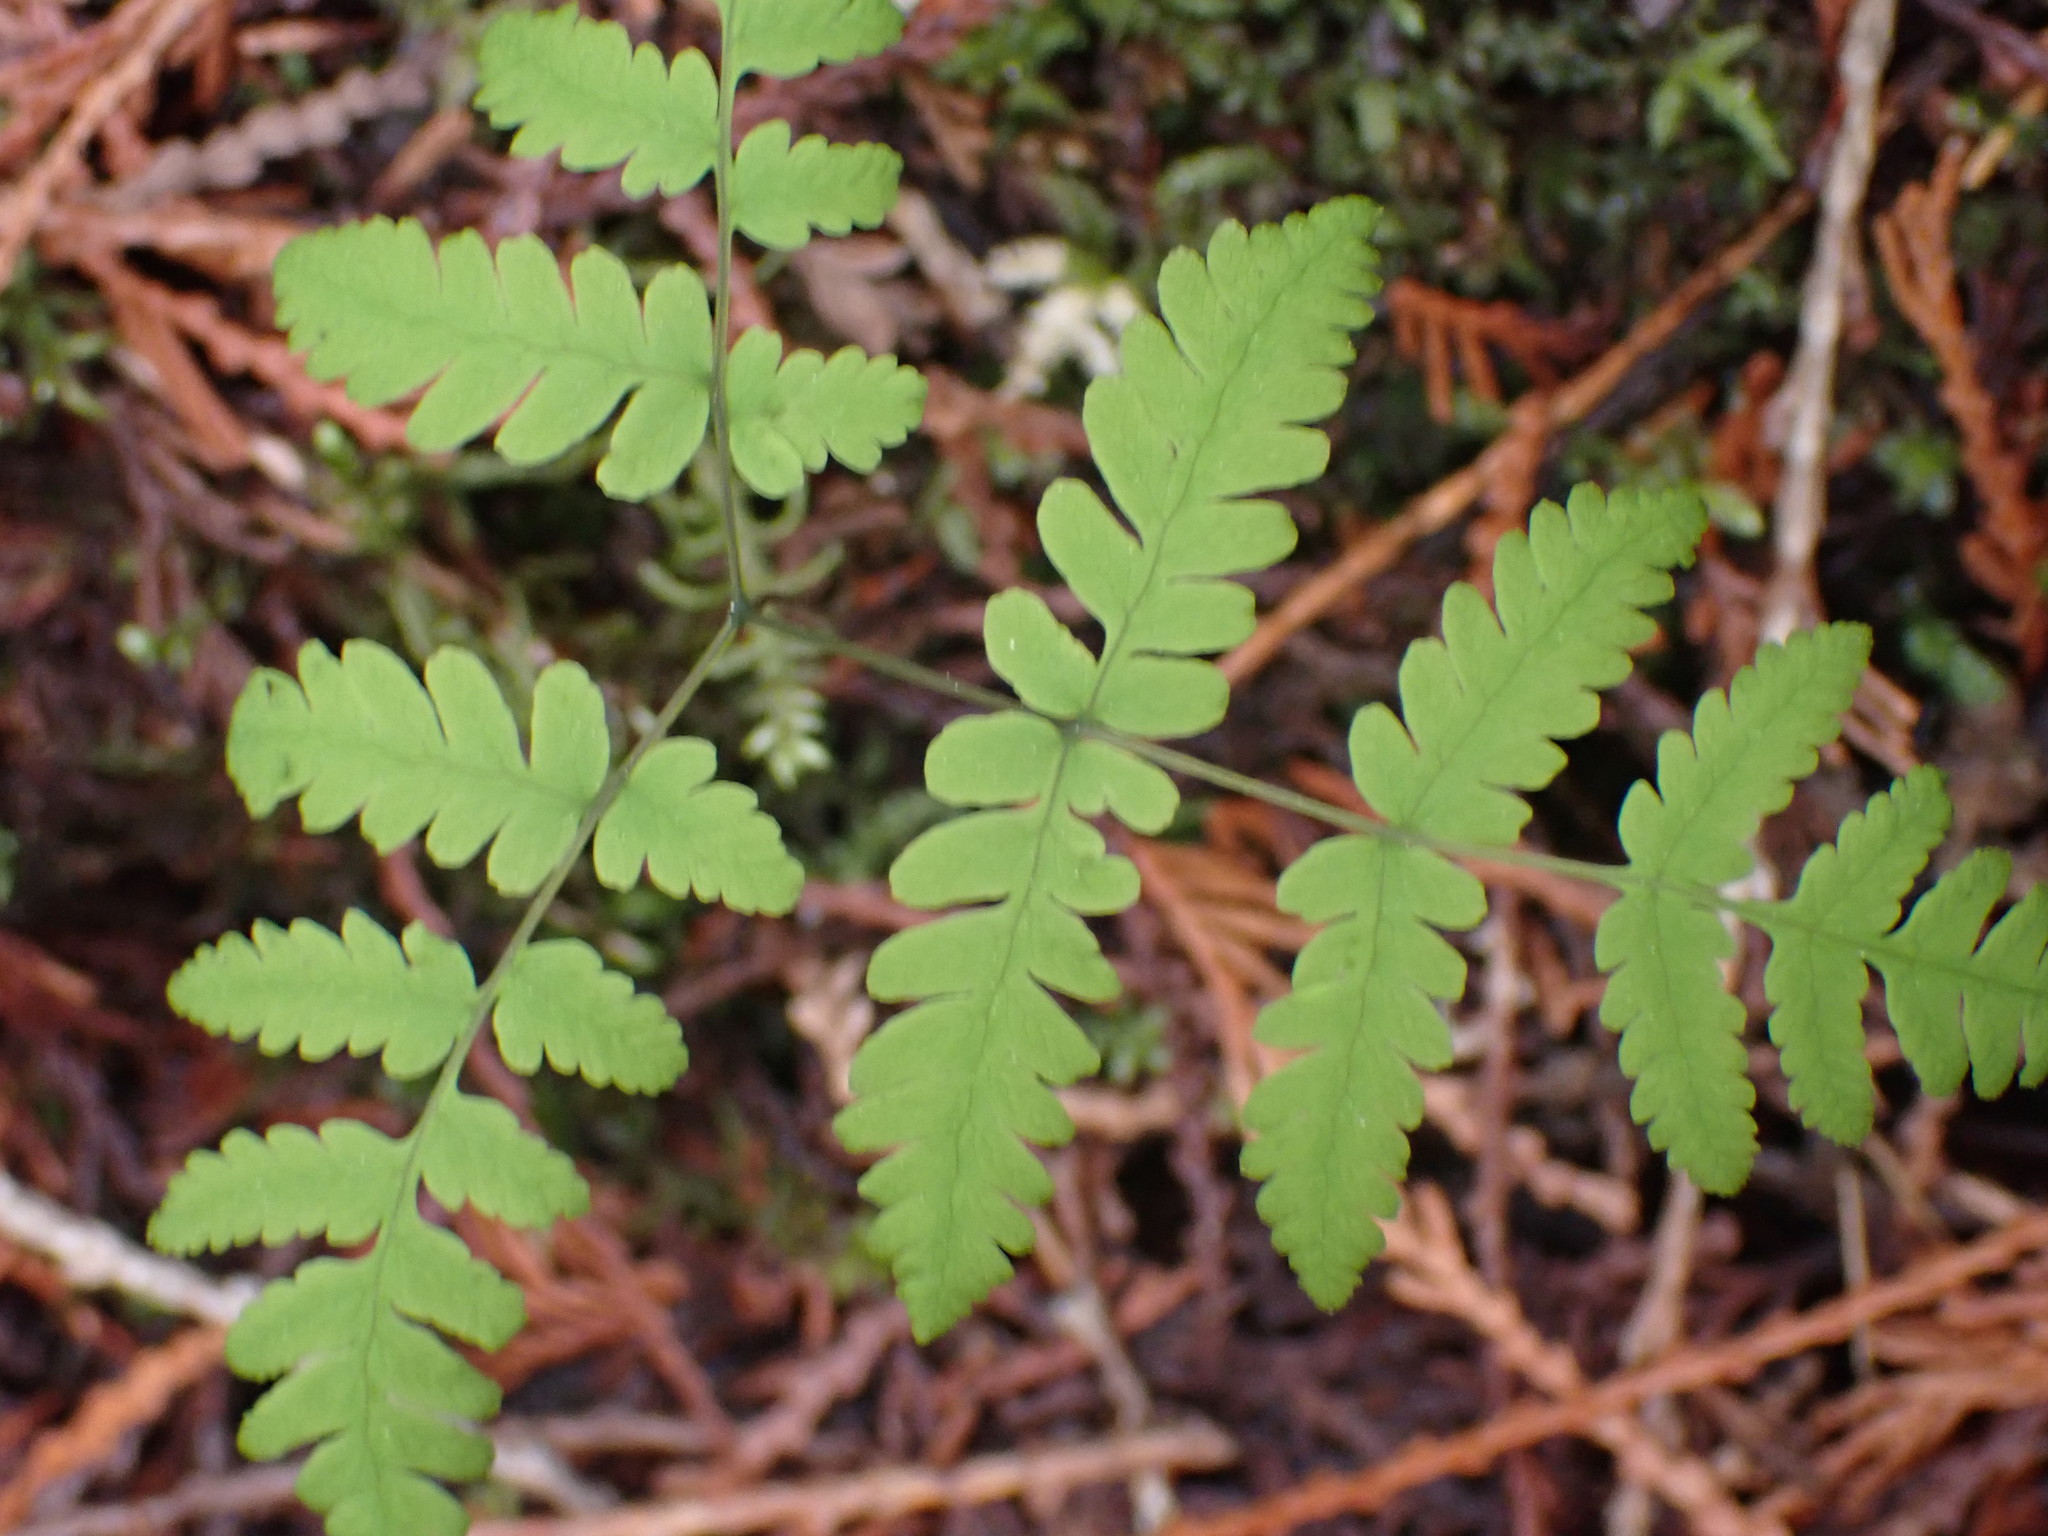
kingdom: Plantae
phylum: Tracheophyta
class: Polypodiopsida
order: Polypodiales
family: Cystopteridaceae
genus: Gymnocarpium
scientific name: Gymnocarpium dryopteris
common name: Oak fern
